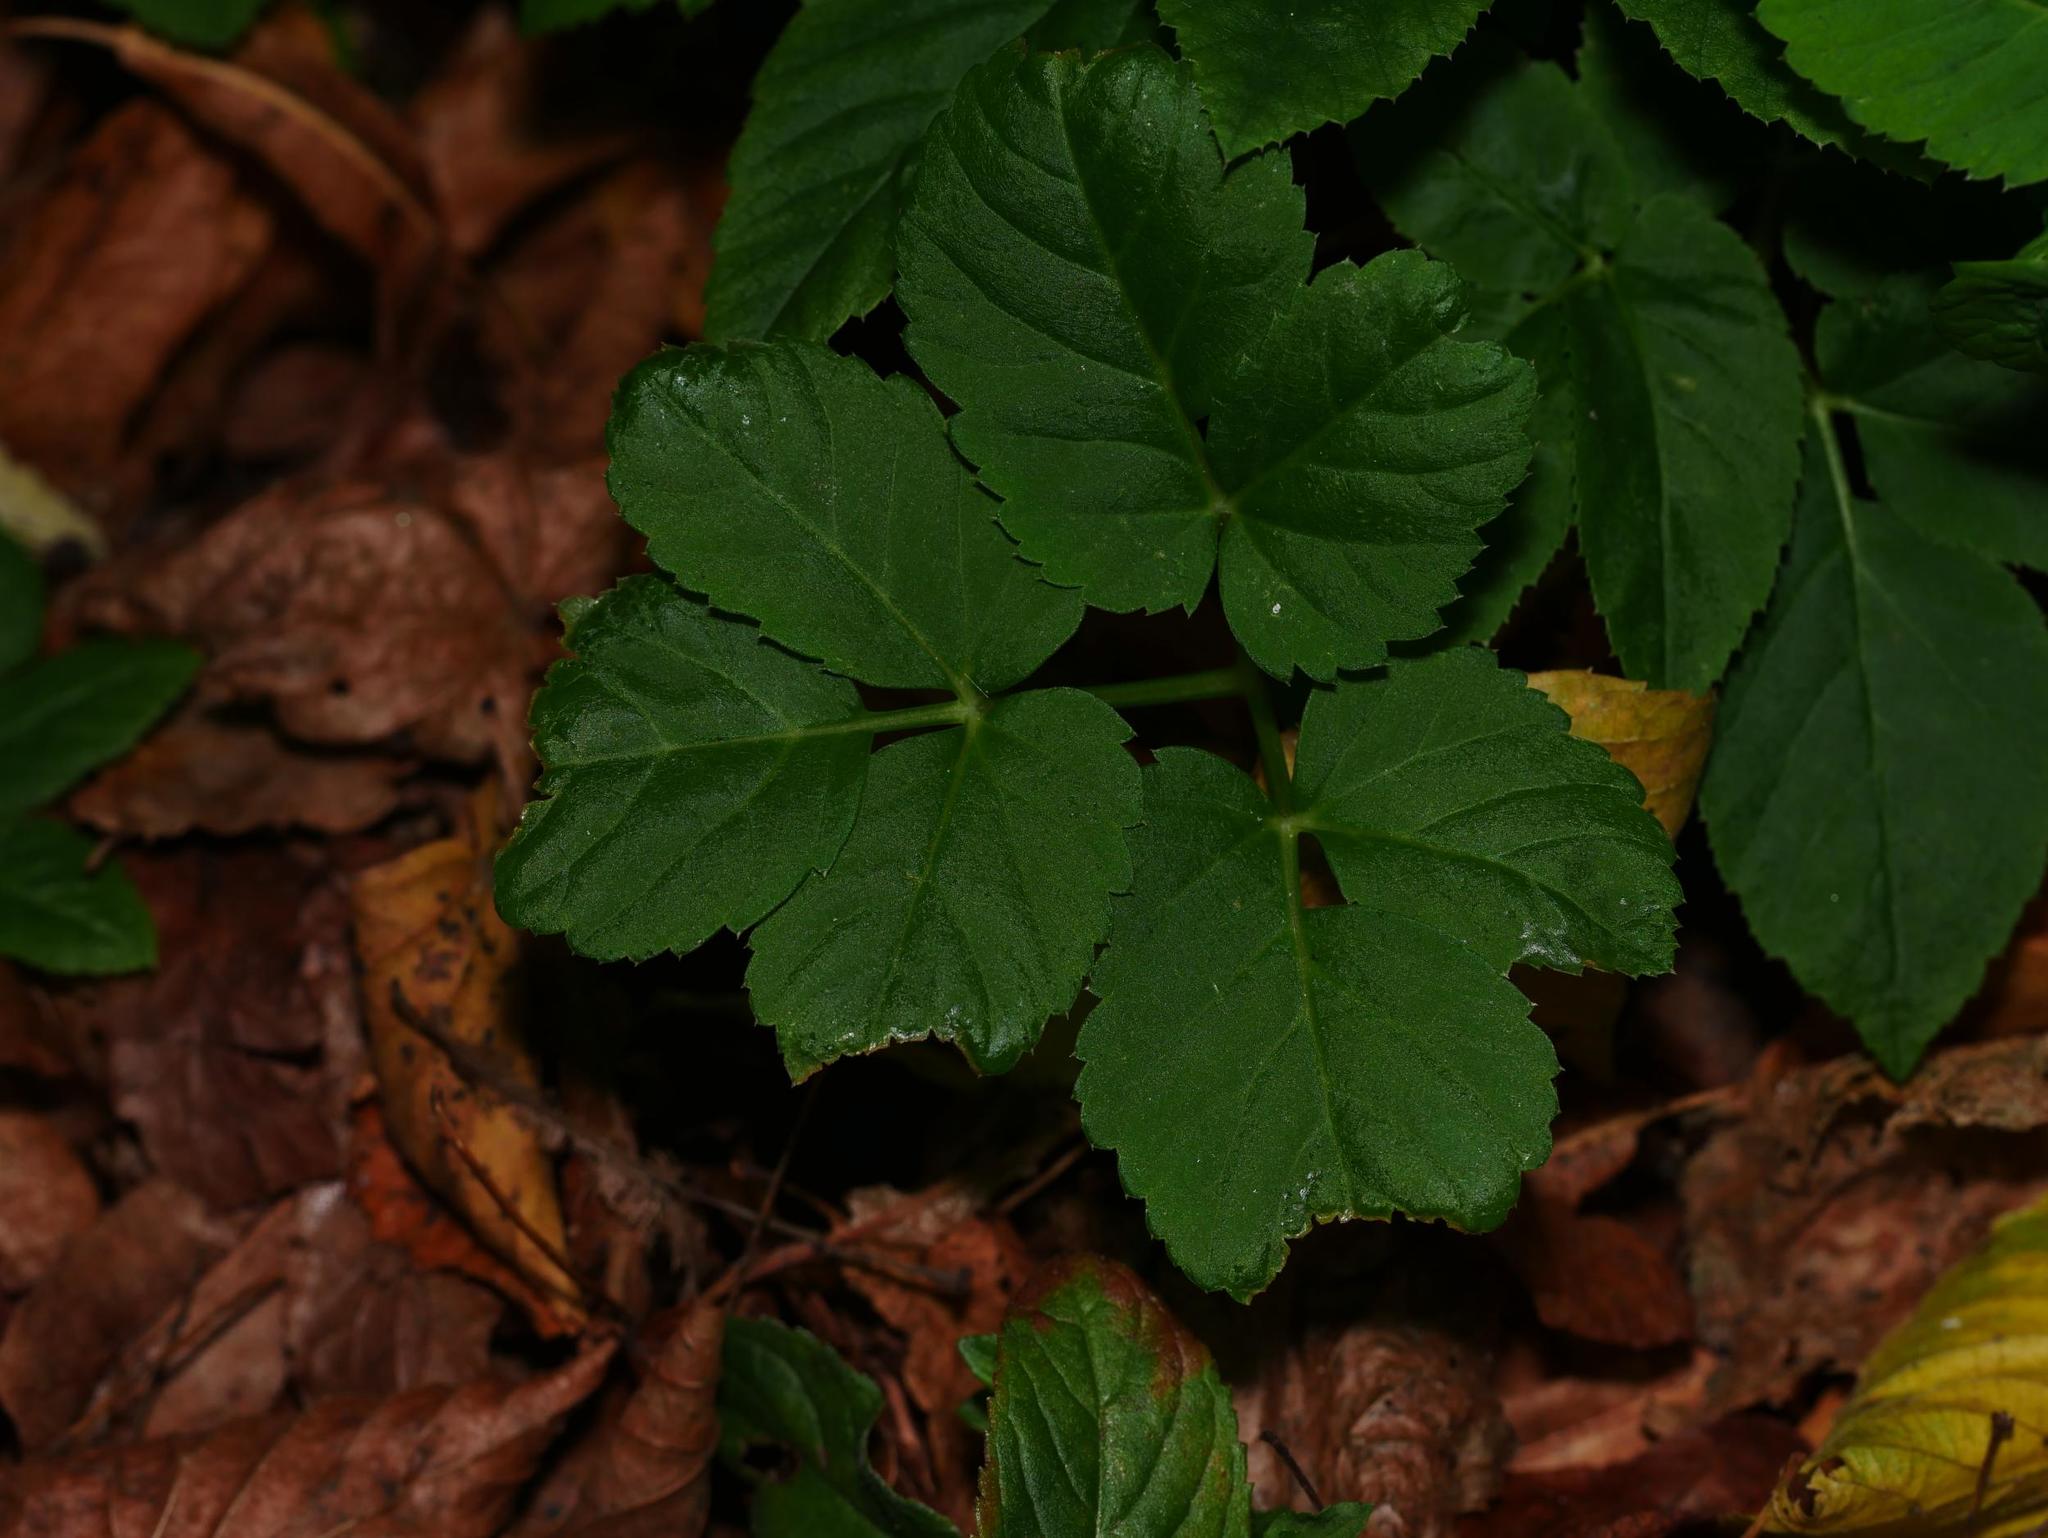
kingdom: Plantae
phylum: Tracheophyta
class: Magnoliopsida
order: Apiales
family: Apiaceae
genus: Aegopodium
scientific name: Aegopodium podagraria
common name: Ground-elder
